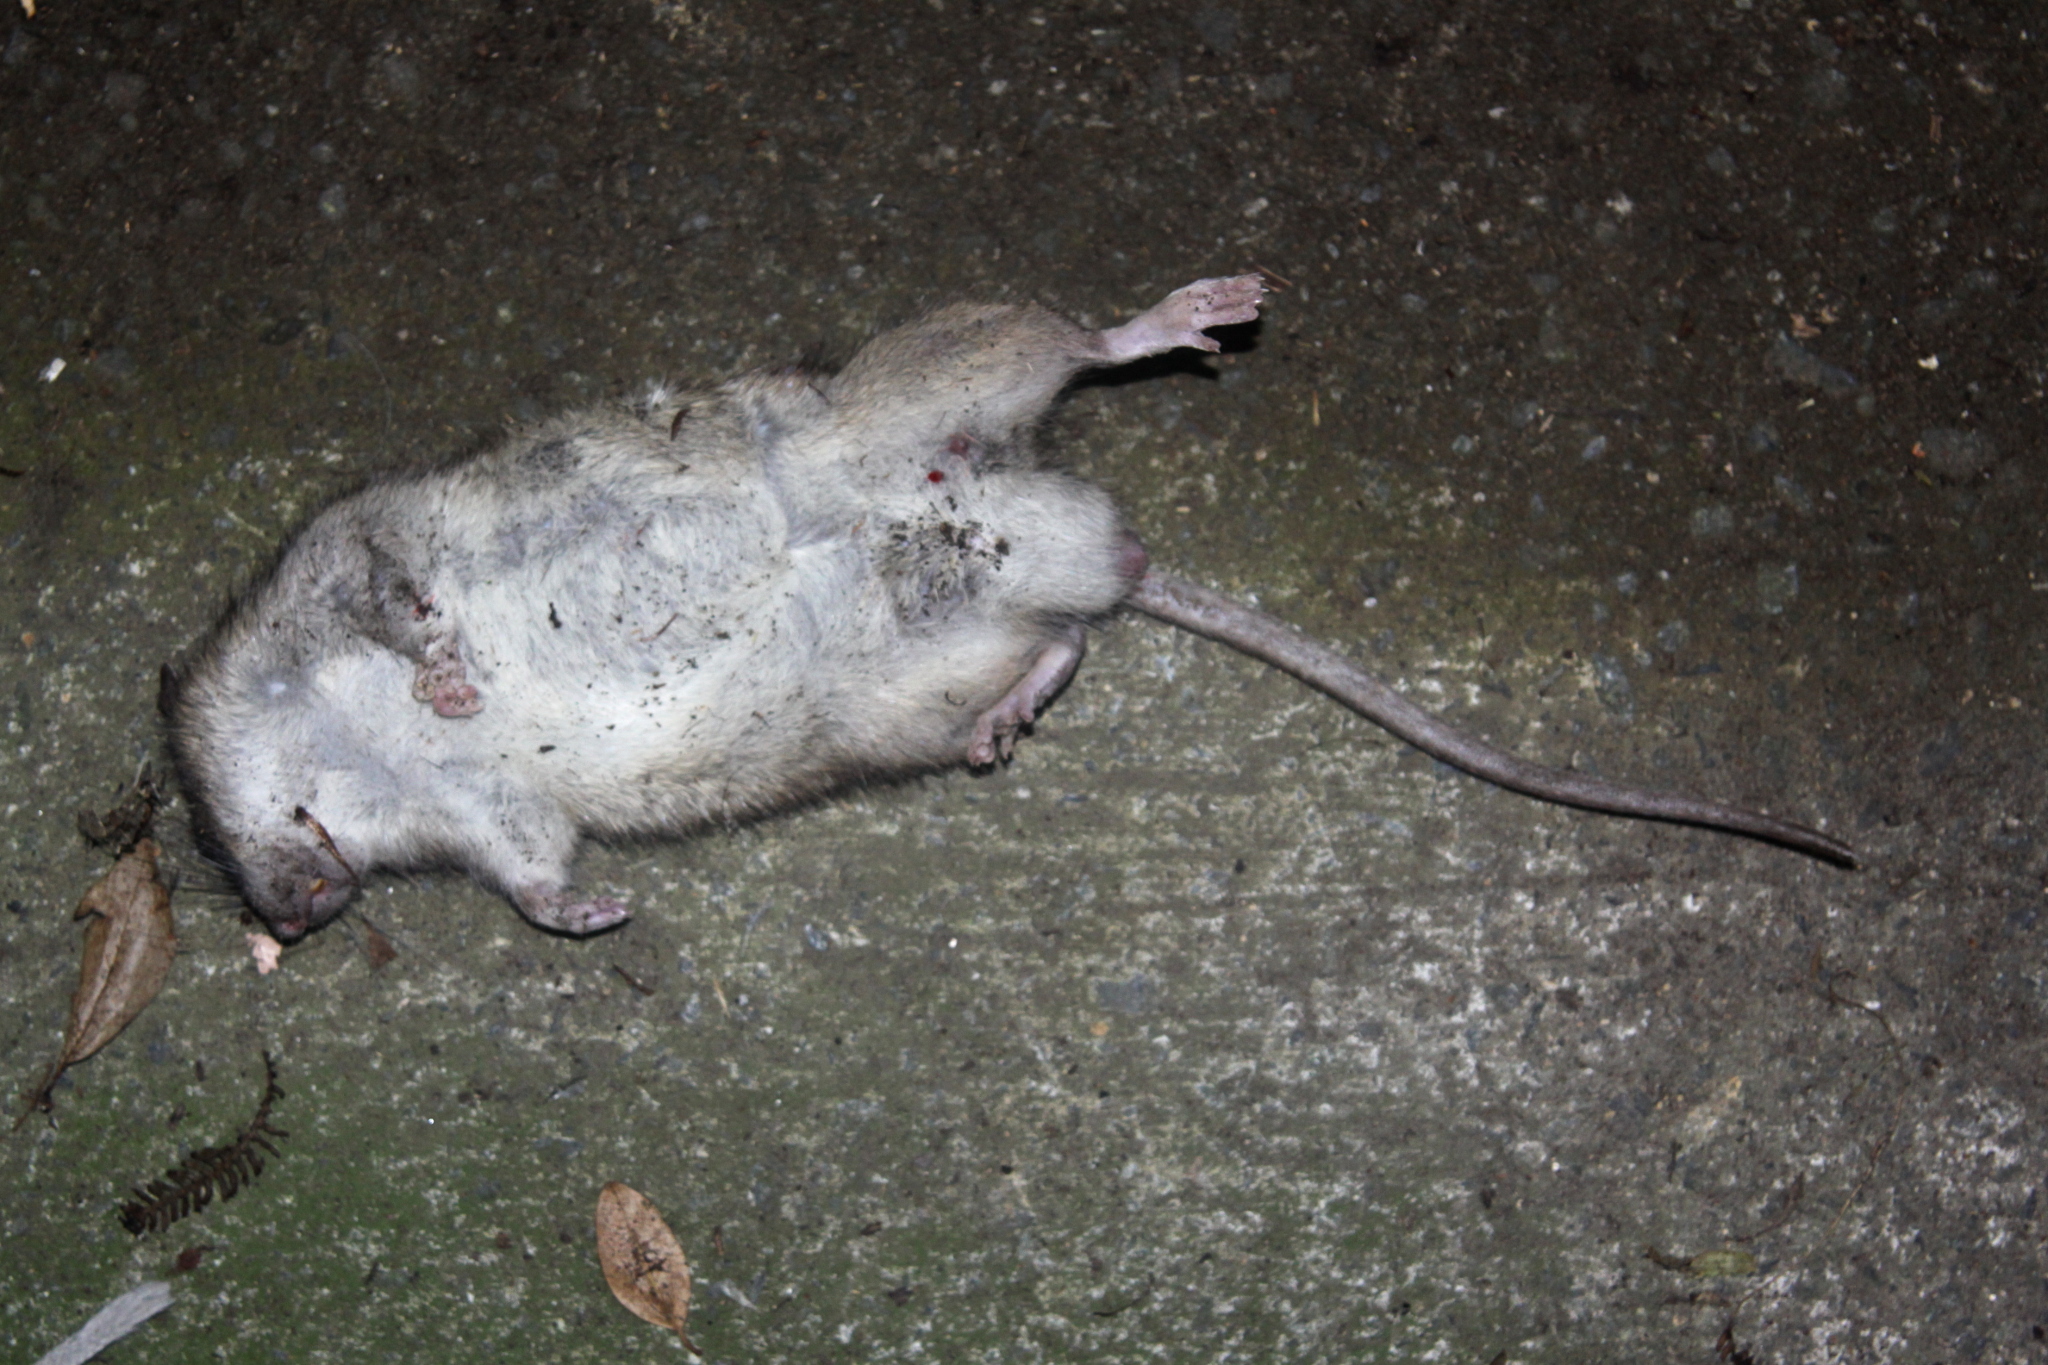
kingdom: Animalia
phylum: Chordata
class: Mammalia
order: Rodentia
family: Muridae
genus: Rattus
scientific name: Rattus norvegicus
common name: Brown rat
